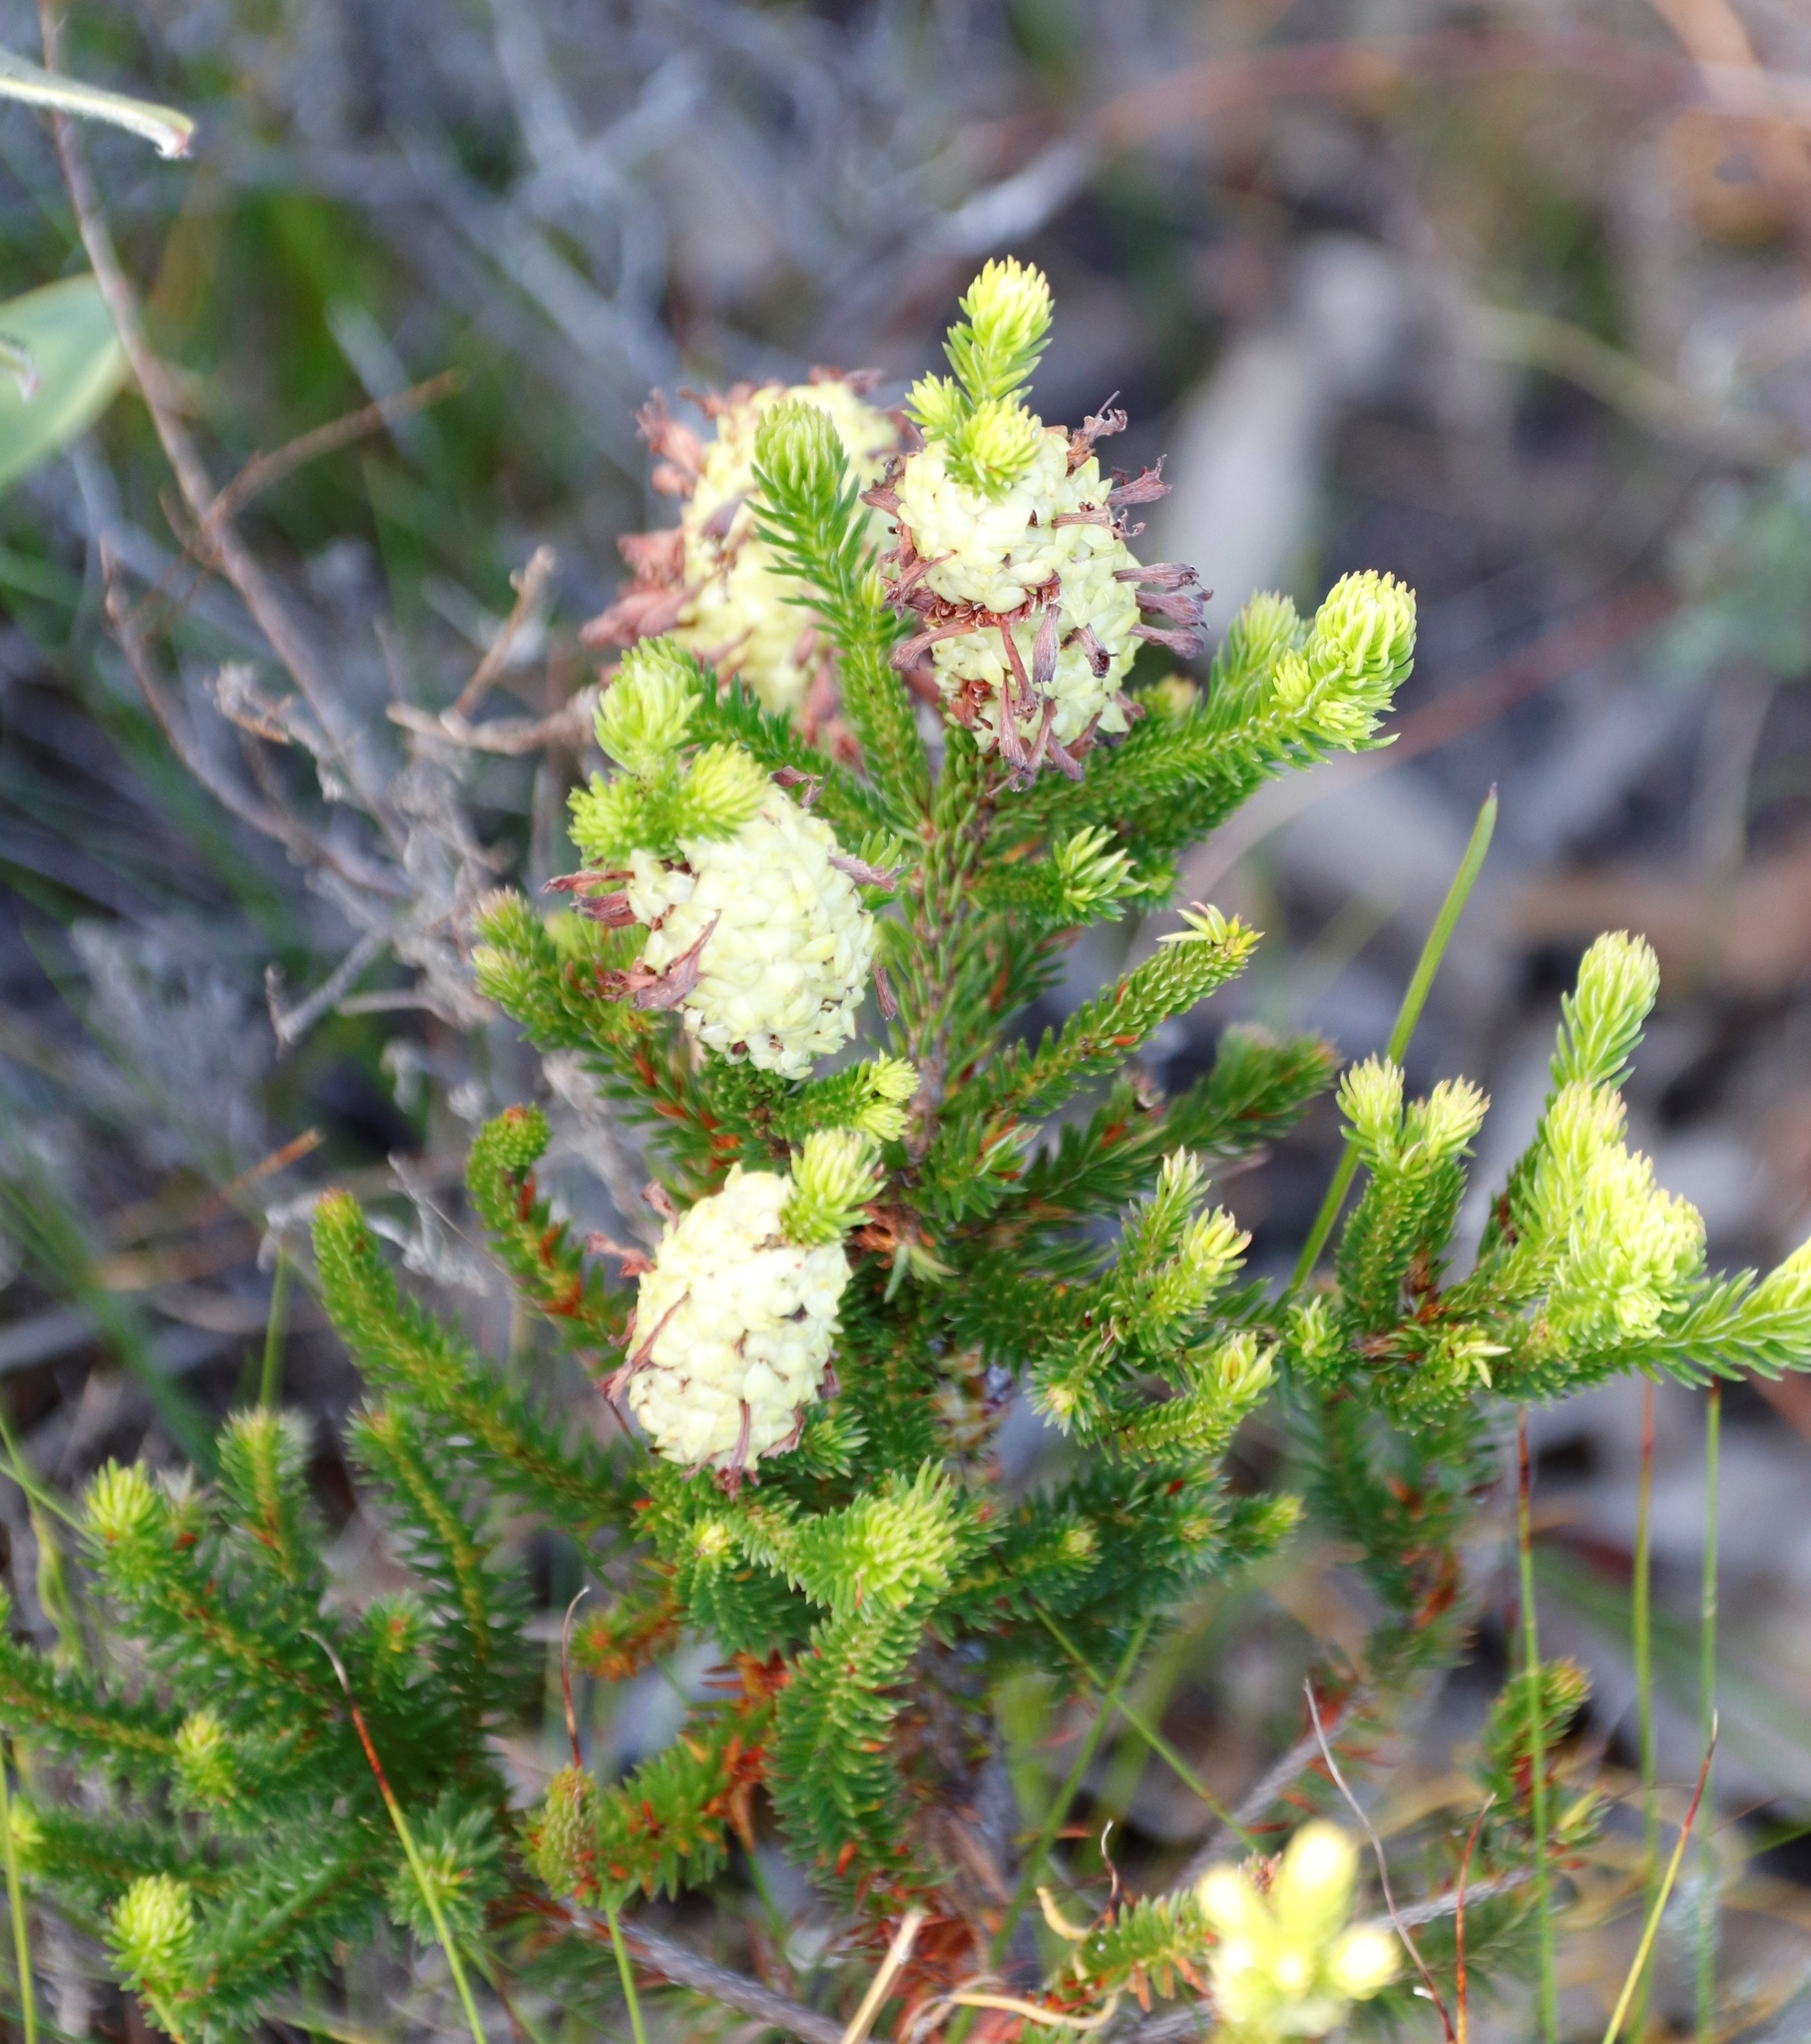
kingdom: Plantae
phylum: Tracheophyta
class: Magnoliopsida
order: Ericales
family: Ericaceae
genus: Erica
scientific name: Erica sessiliflora
